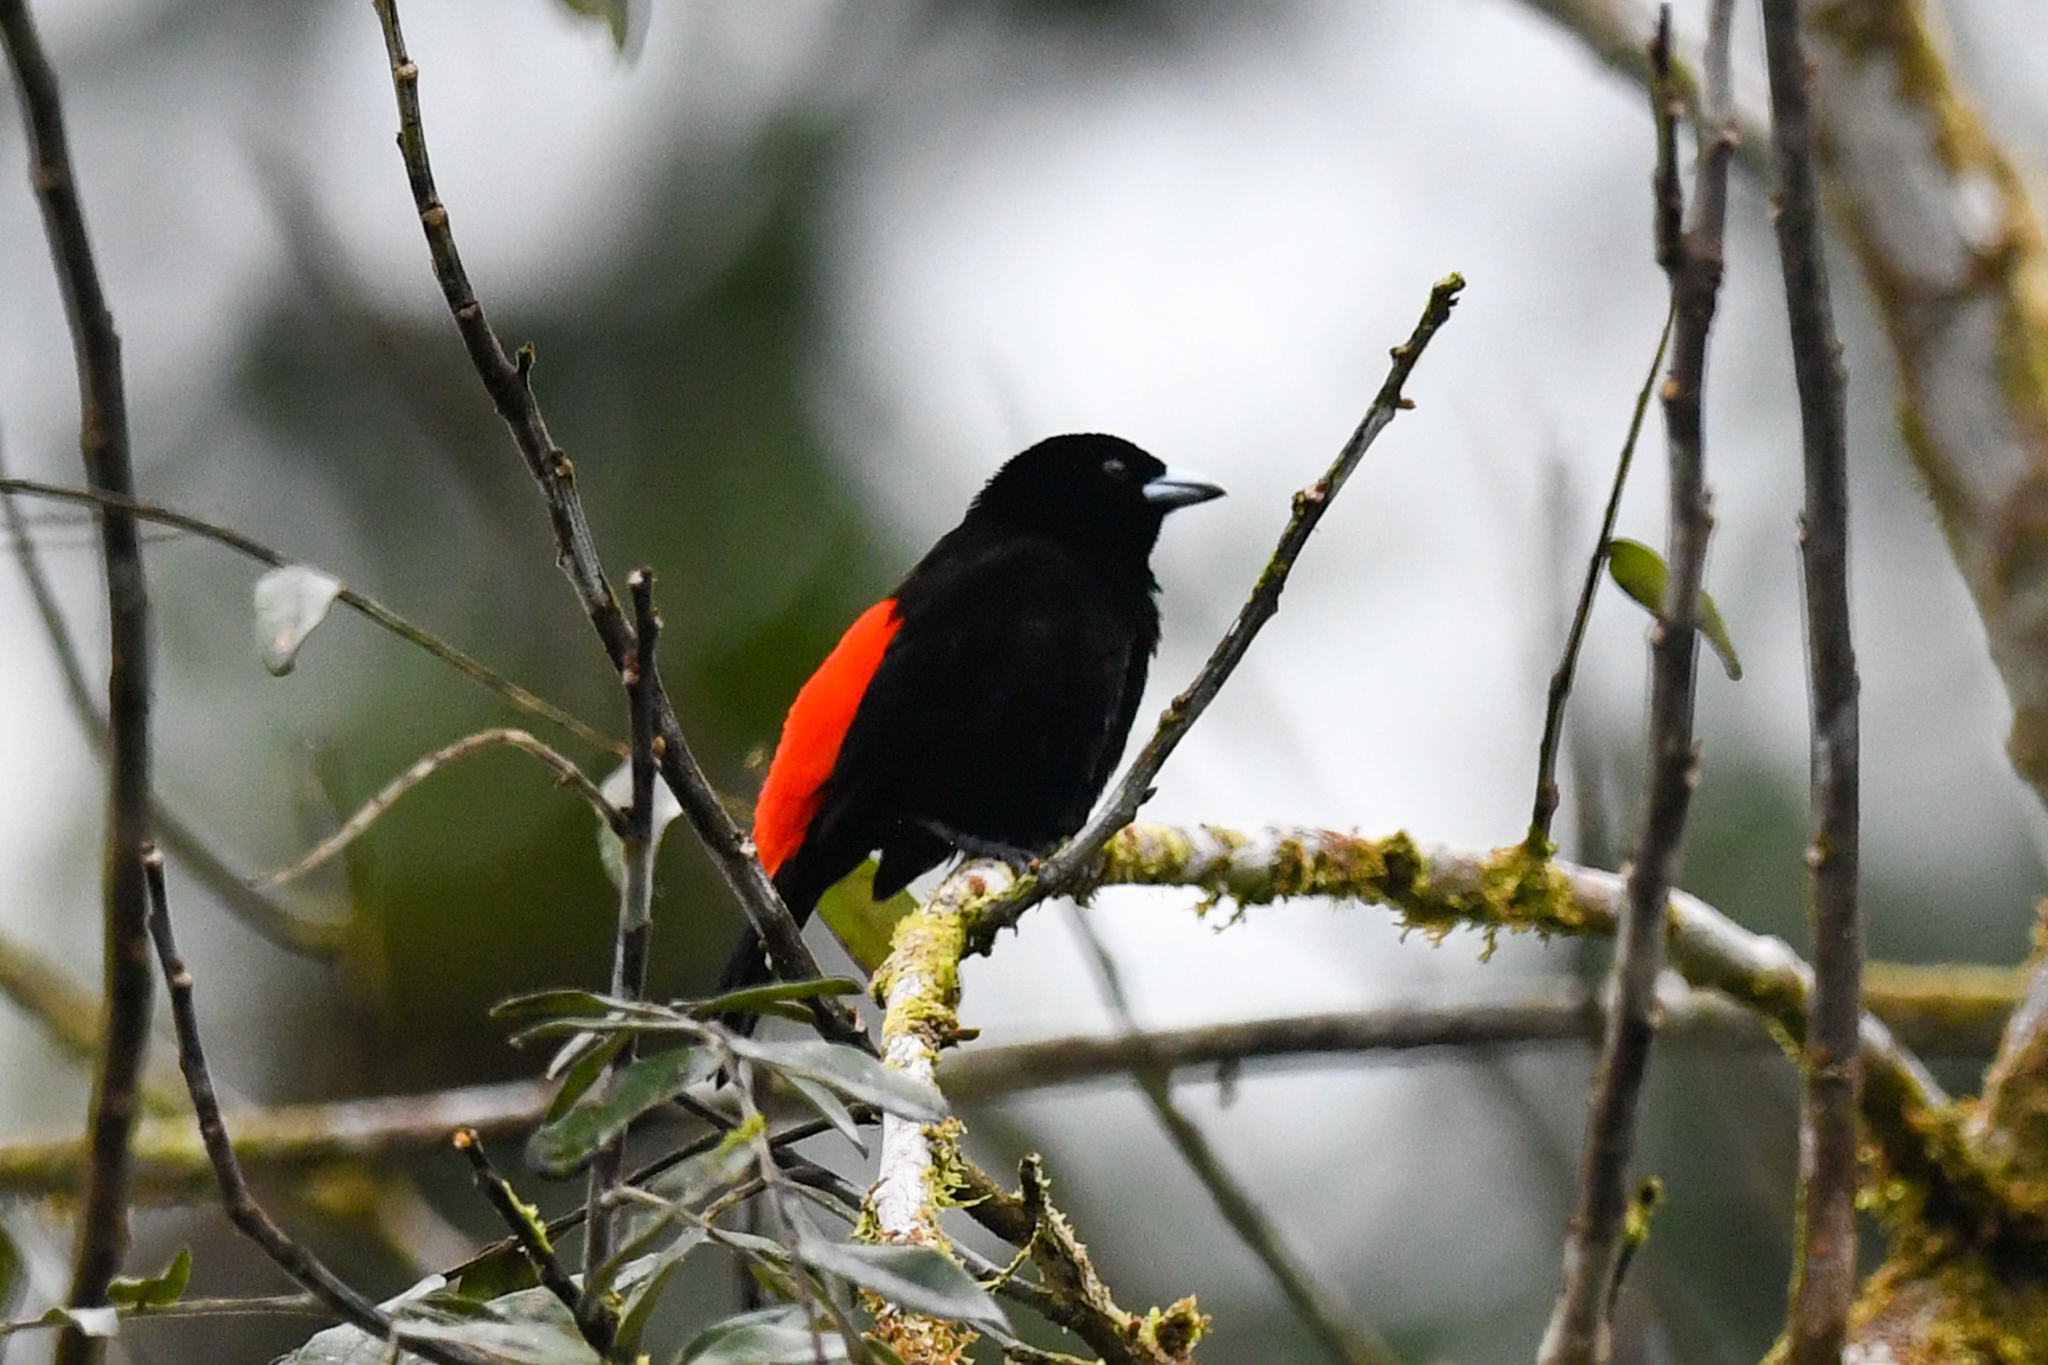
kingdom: Animalia
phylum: Chordata
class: Aves
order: Passeriformes
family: Thraupidae
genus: Ramphocelus
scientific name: Ramphocelus passerinii
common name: Passerini's tanager
